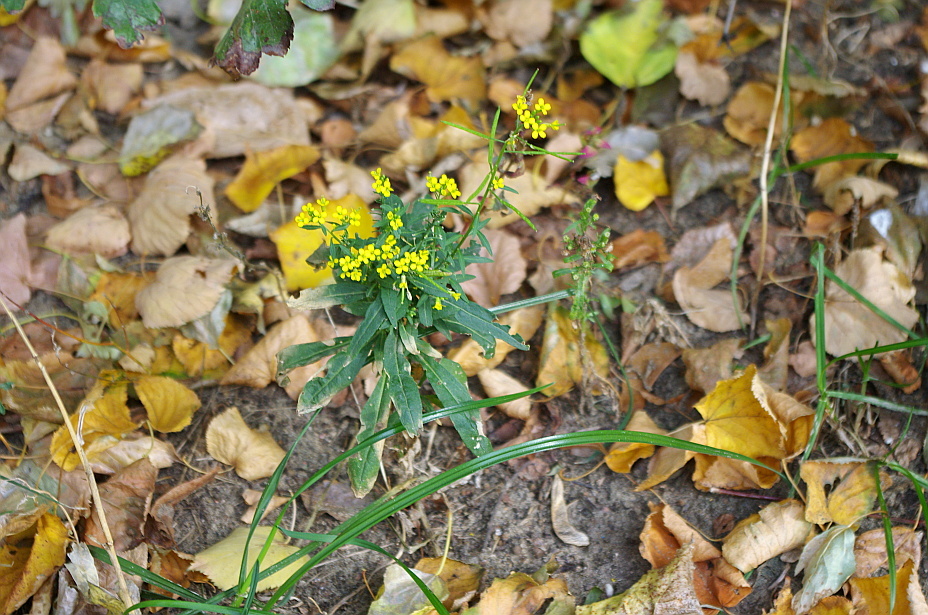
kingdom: Plantae
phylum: Tracheophyta
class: Magnoliopsida
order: Brassicales
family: Brassicaceae
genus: Erysimum
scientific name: Erysimum cheiranthoides
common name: Treacle mustard
